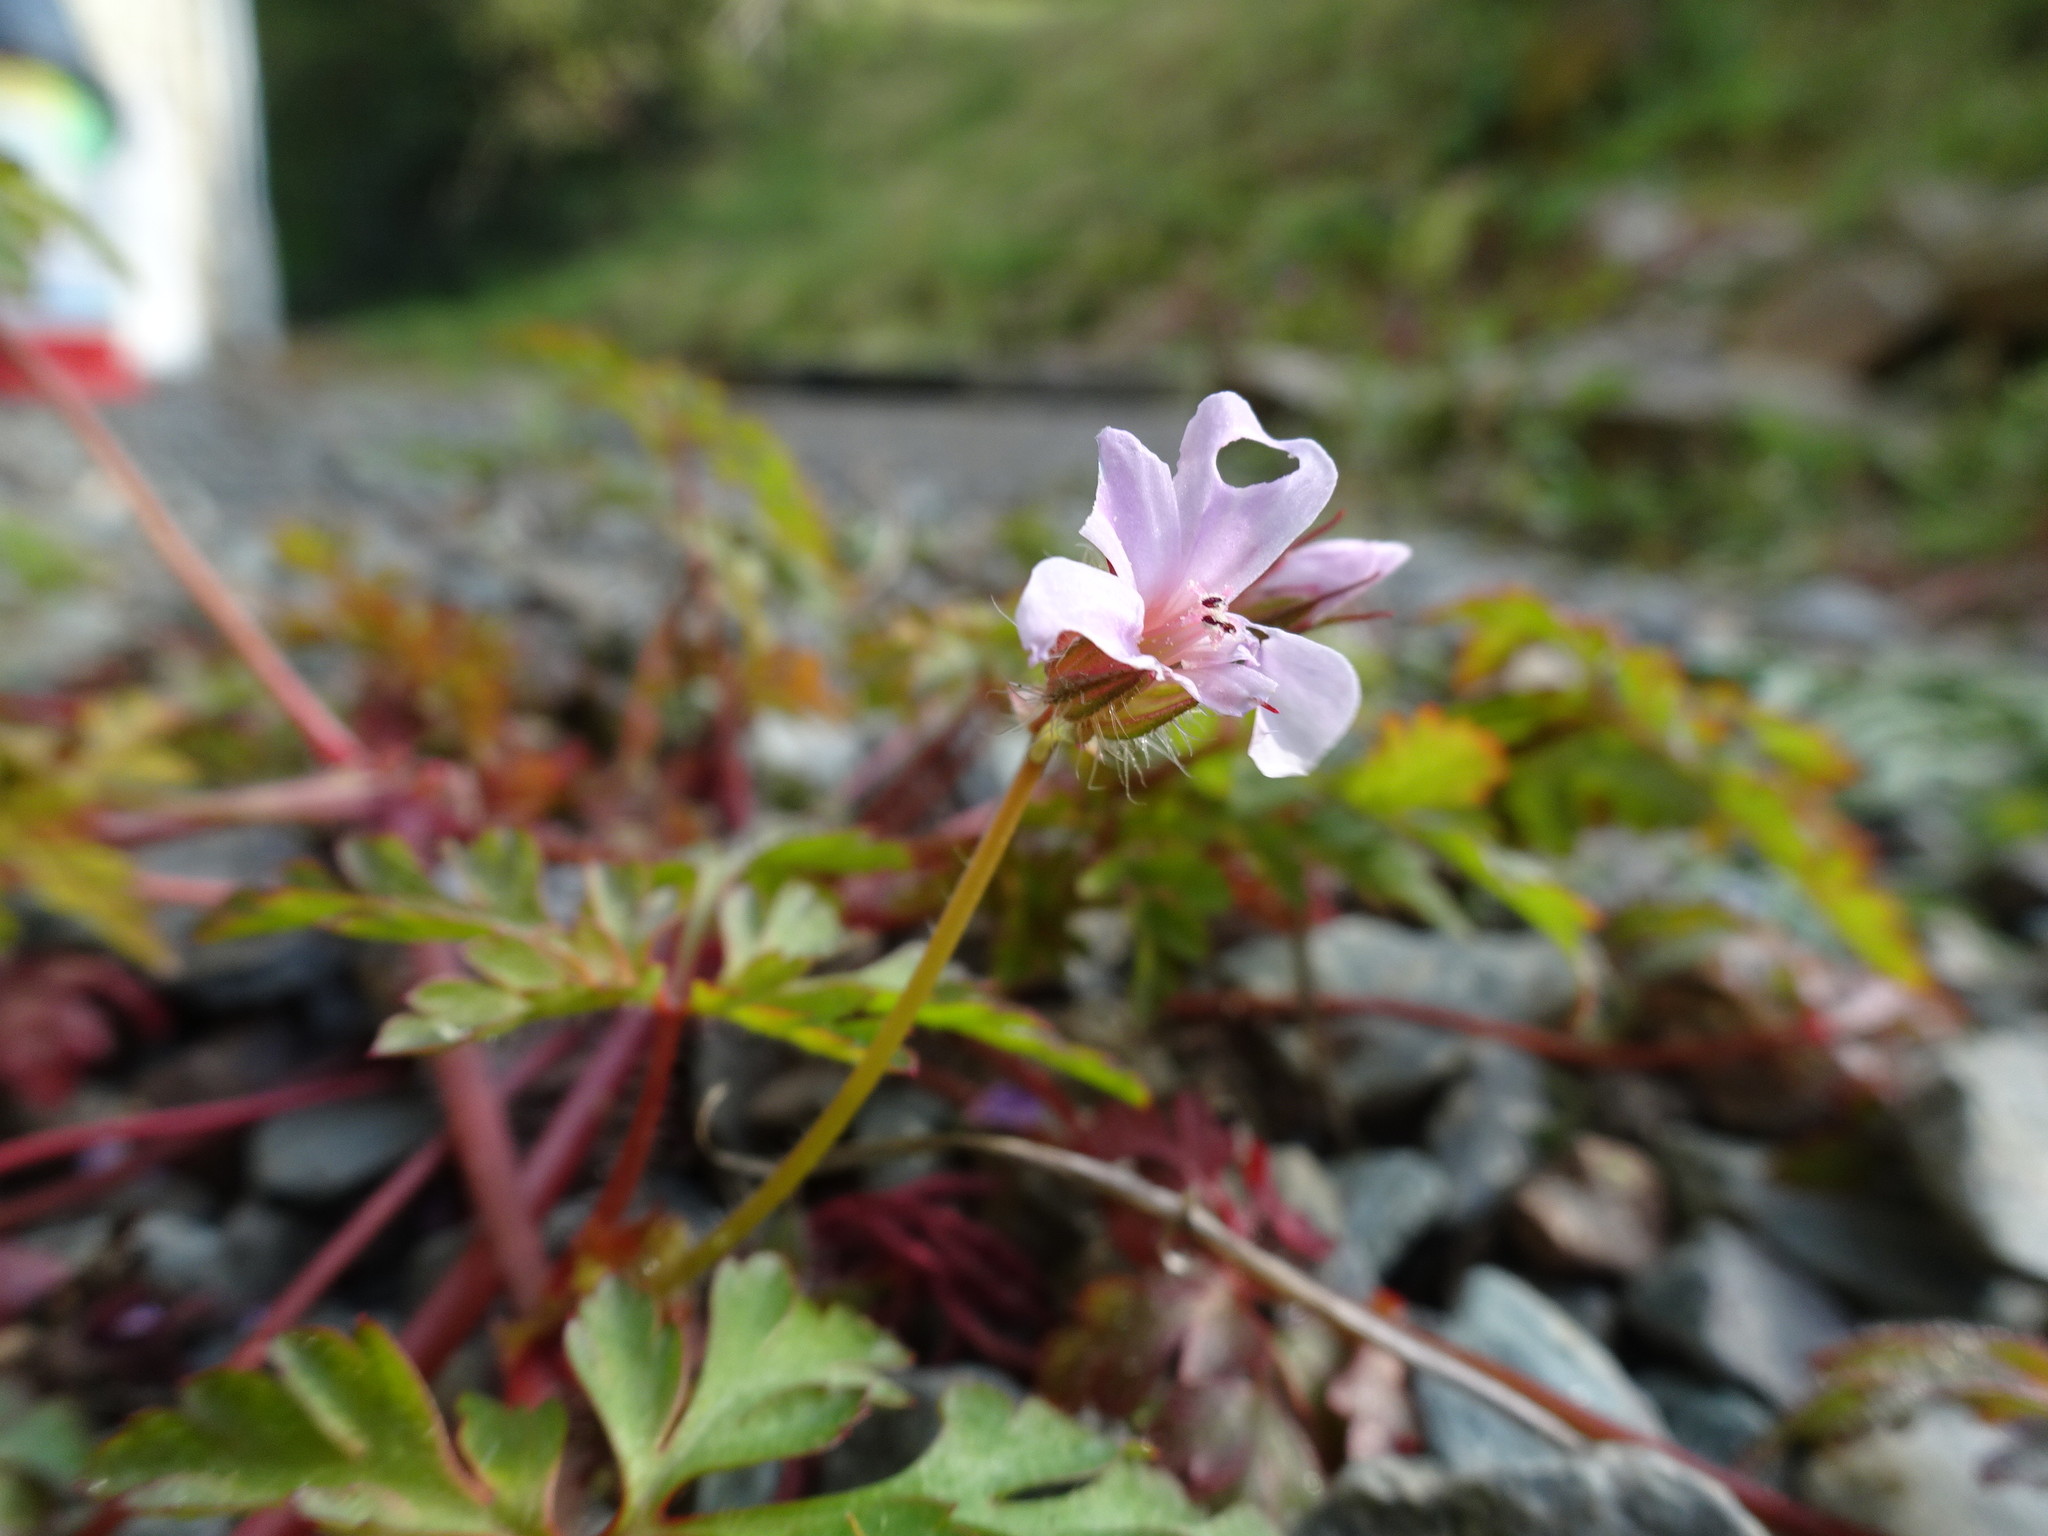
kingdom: Plantae
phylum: Tracheophyta
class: Magnoliopsida
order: Geraniales
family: Geraniaceae
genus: Geranium
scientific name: Geranium robertianum
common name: Herb-robert
